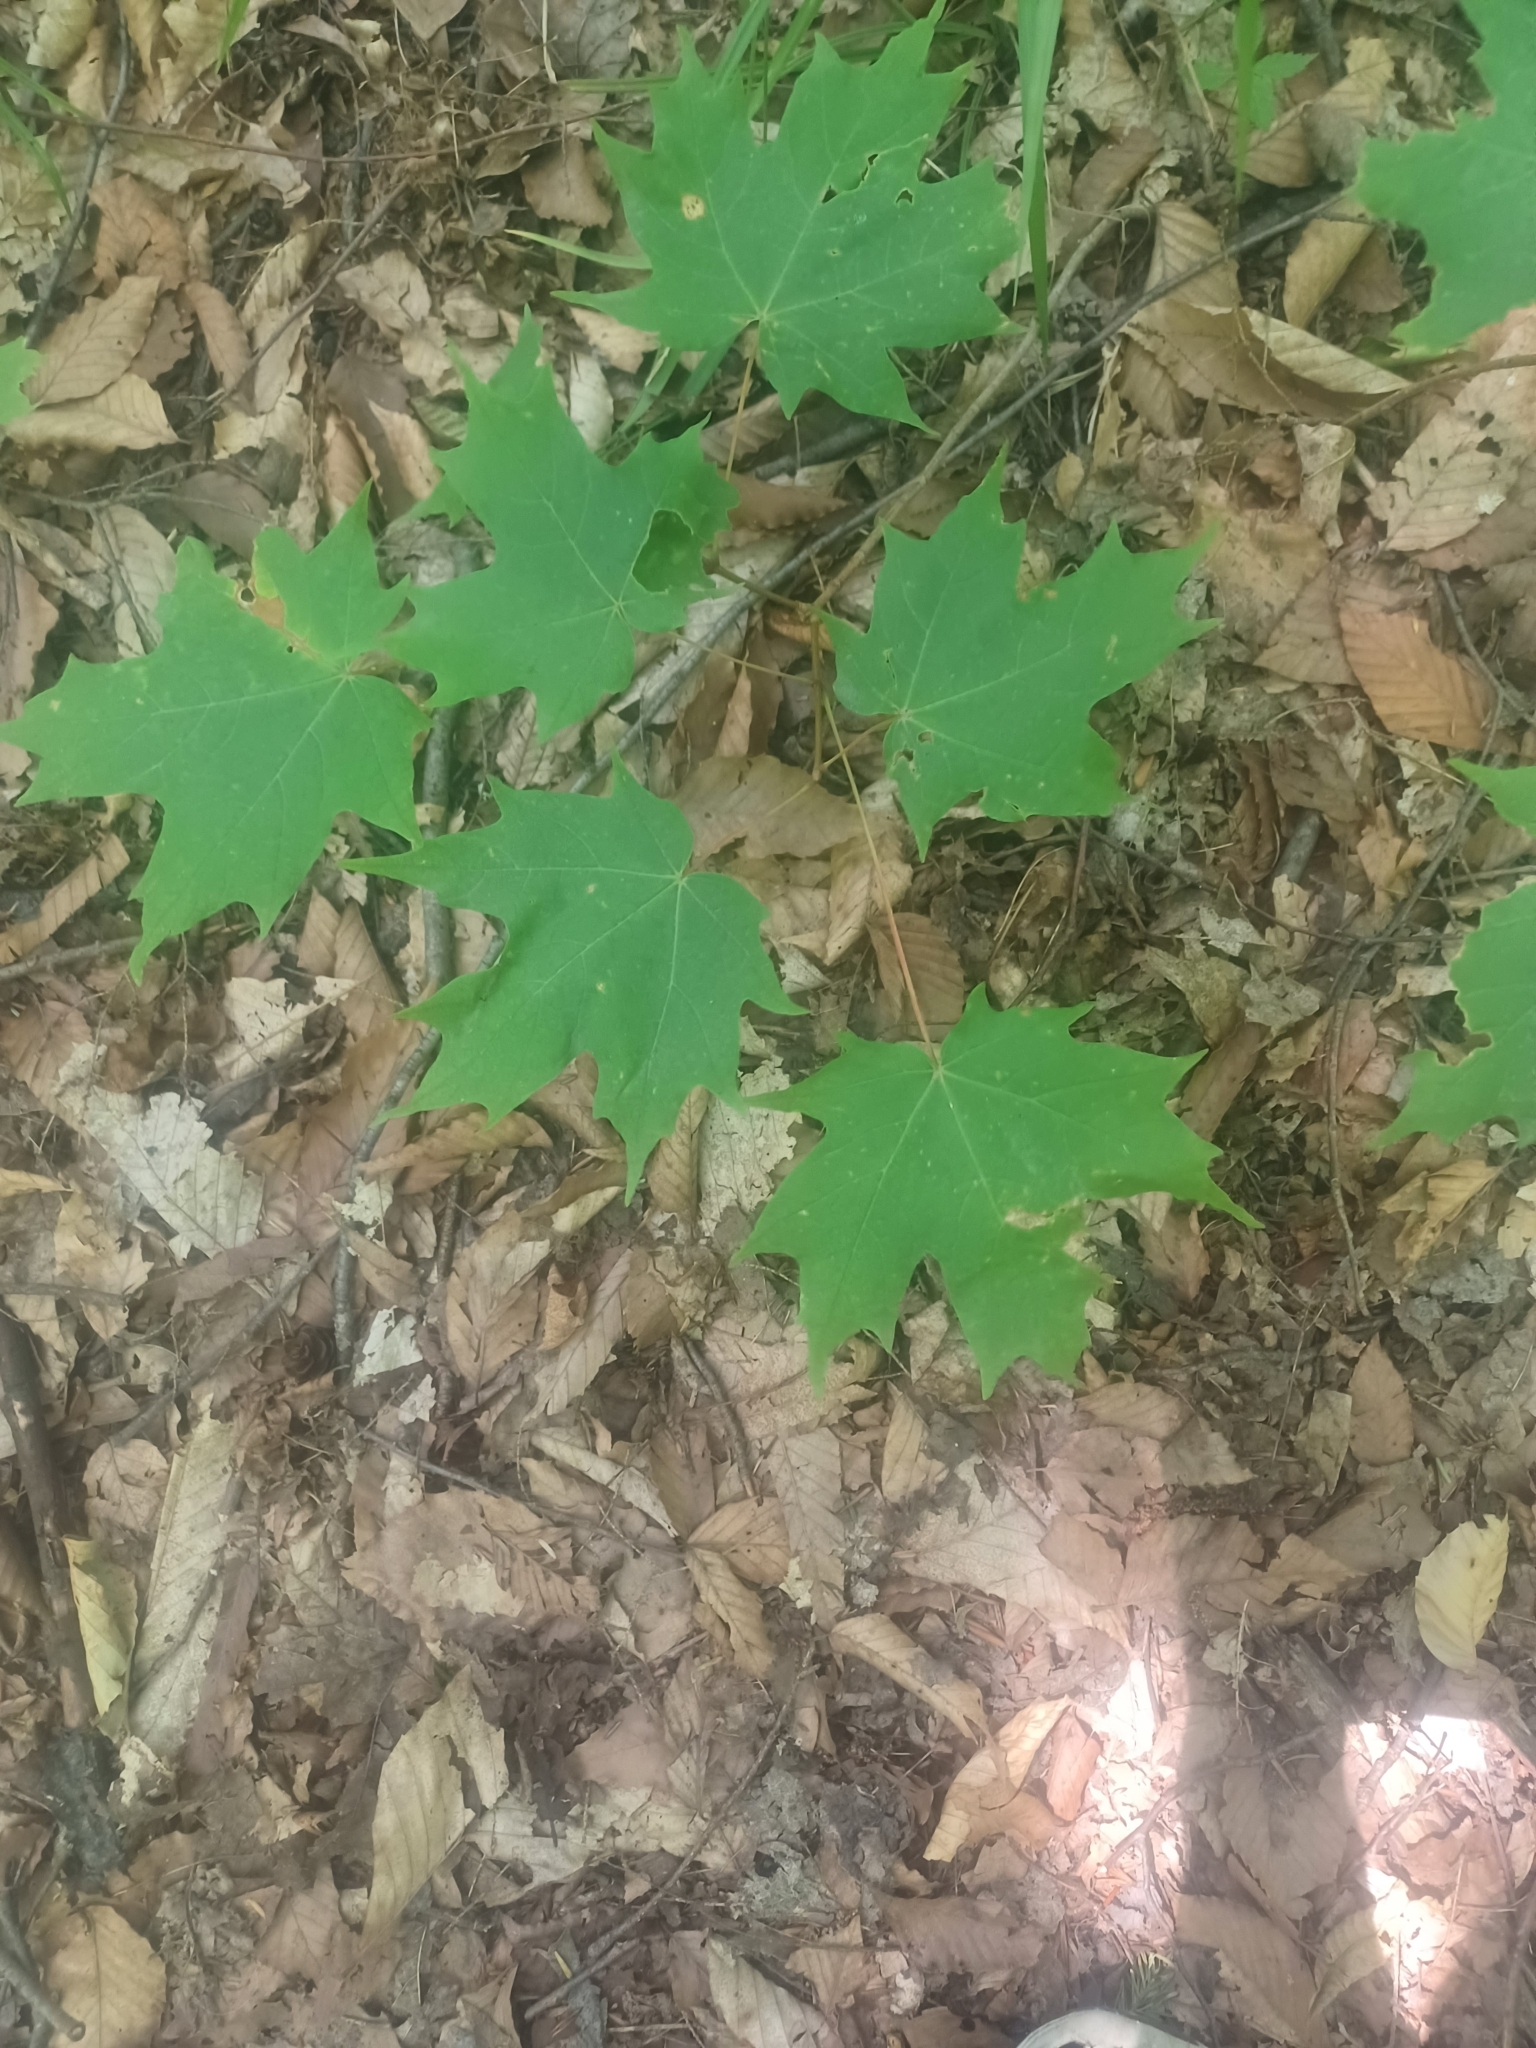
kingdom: Plantae
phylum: Tracheophyta
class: Magnoliopsida
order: Sapindales
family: Sapindaceae
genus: Acer
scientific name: Acer saccharum
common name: Sugar maple
